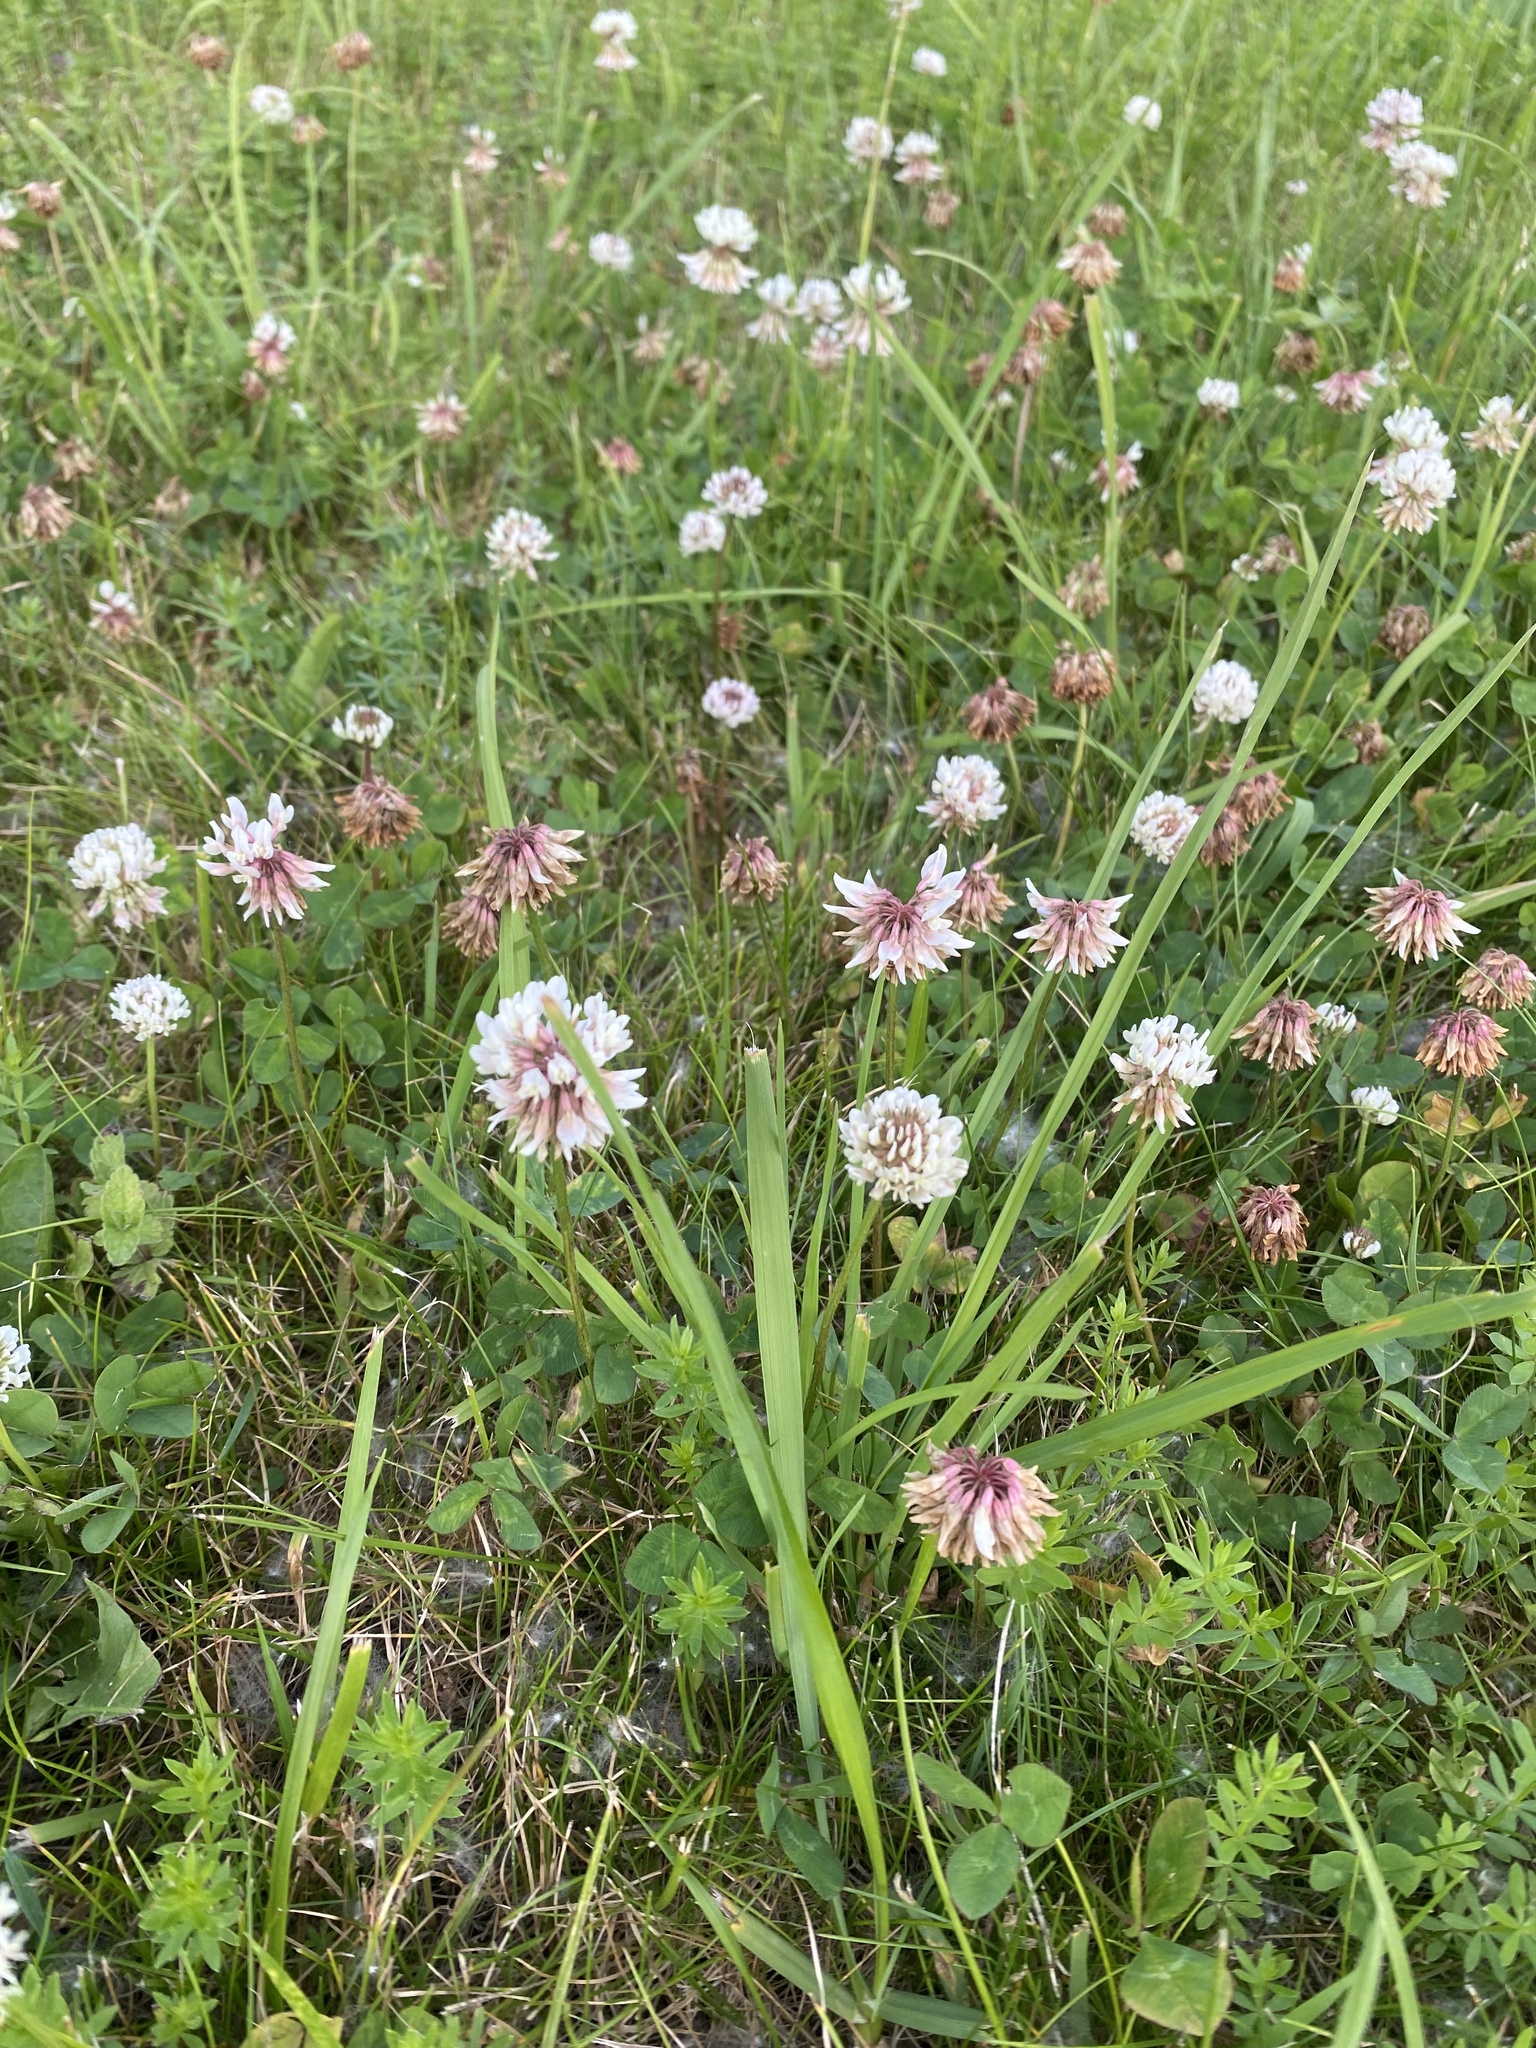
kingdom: Plantae
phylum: Tracheophyta
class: Magnoliopsida
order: Fabales
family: Fabaceae
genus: Trifolium
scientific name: Trifolium repens
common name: White clover
